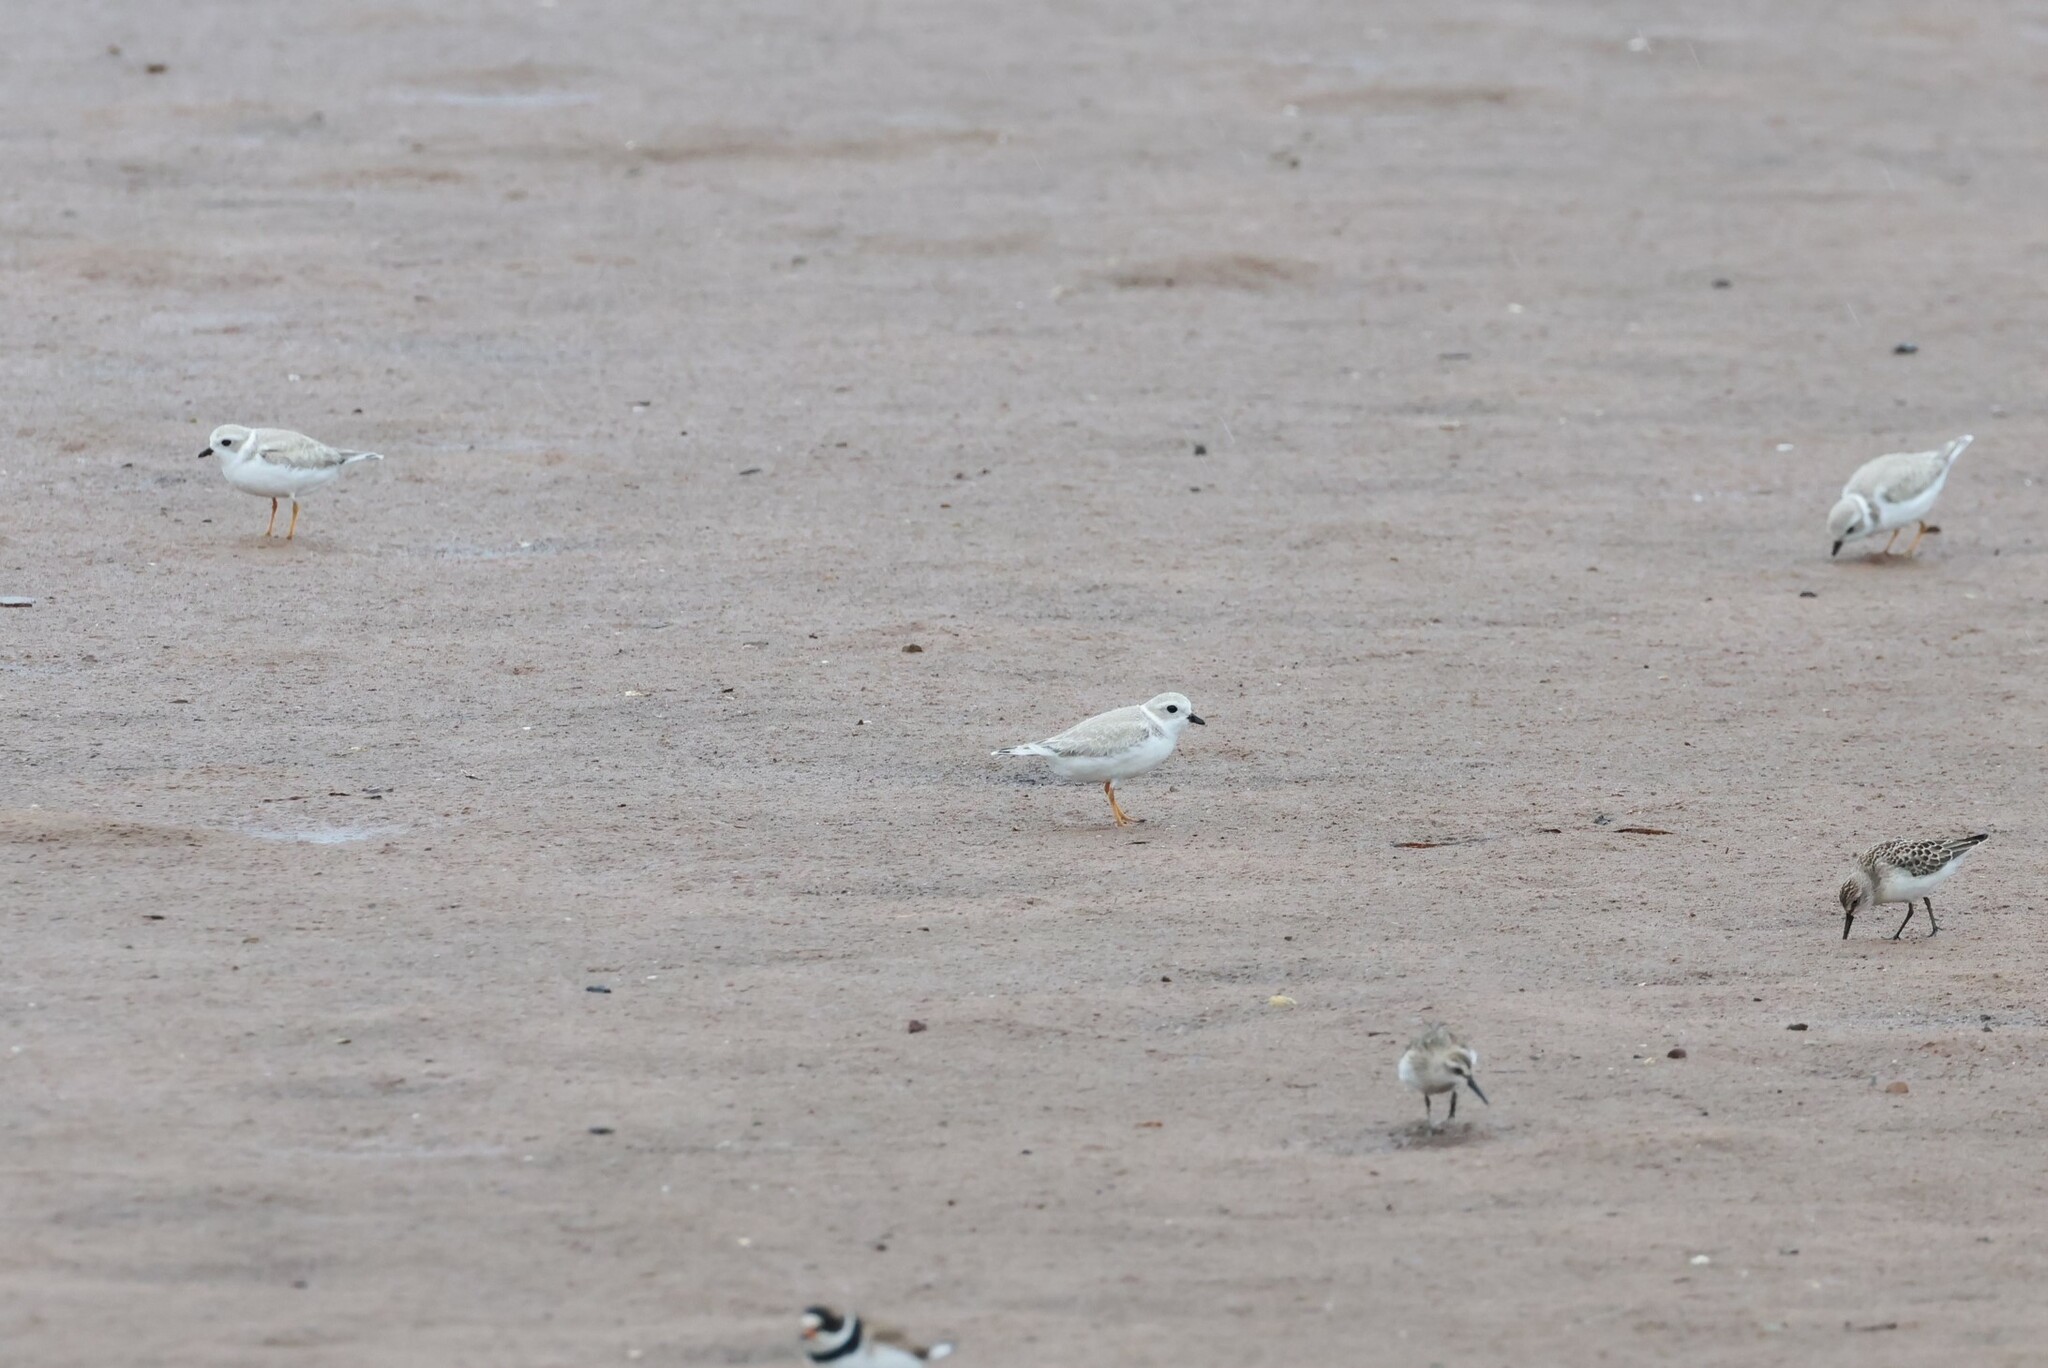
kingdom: Animalia
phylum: Chordata
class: Aves
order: Charadriiformes
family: Charadriidae
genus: Charadrius
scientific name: Charadrius melodus
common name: Piping plover
